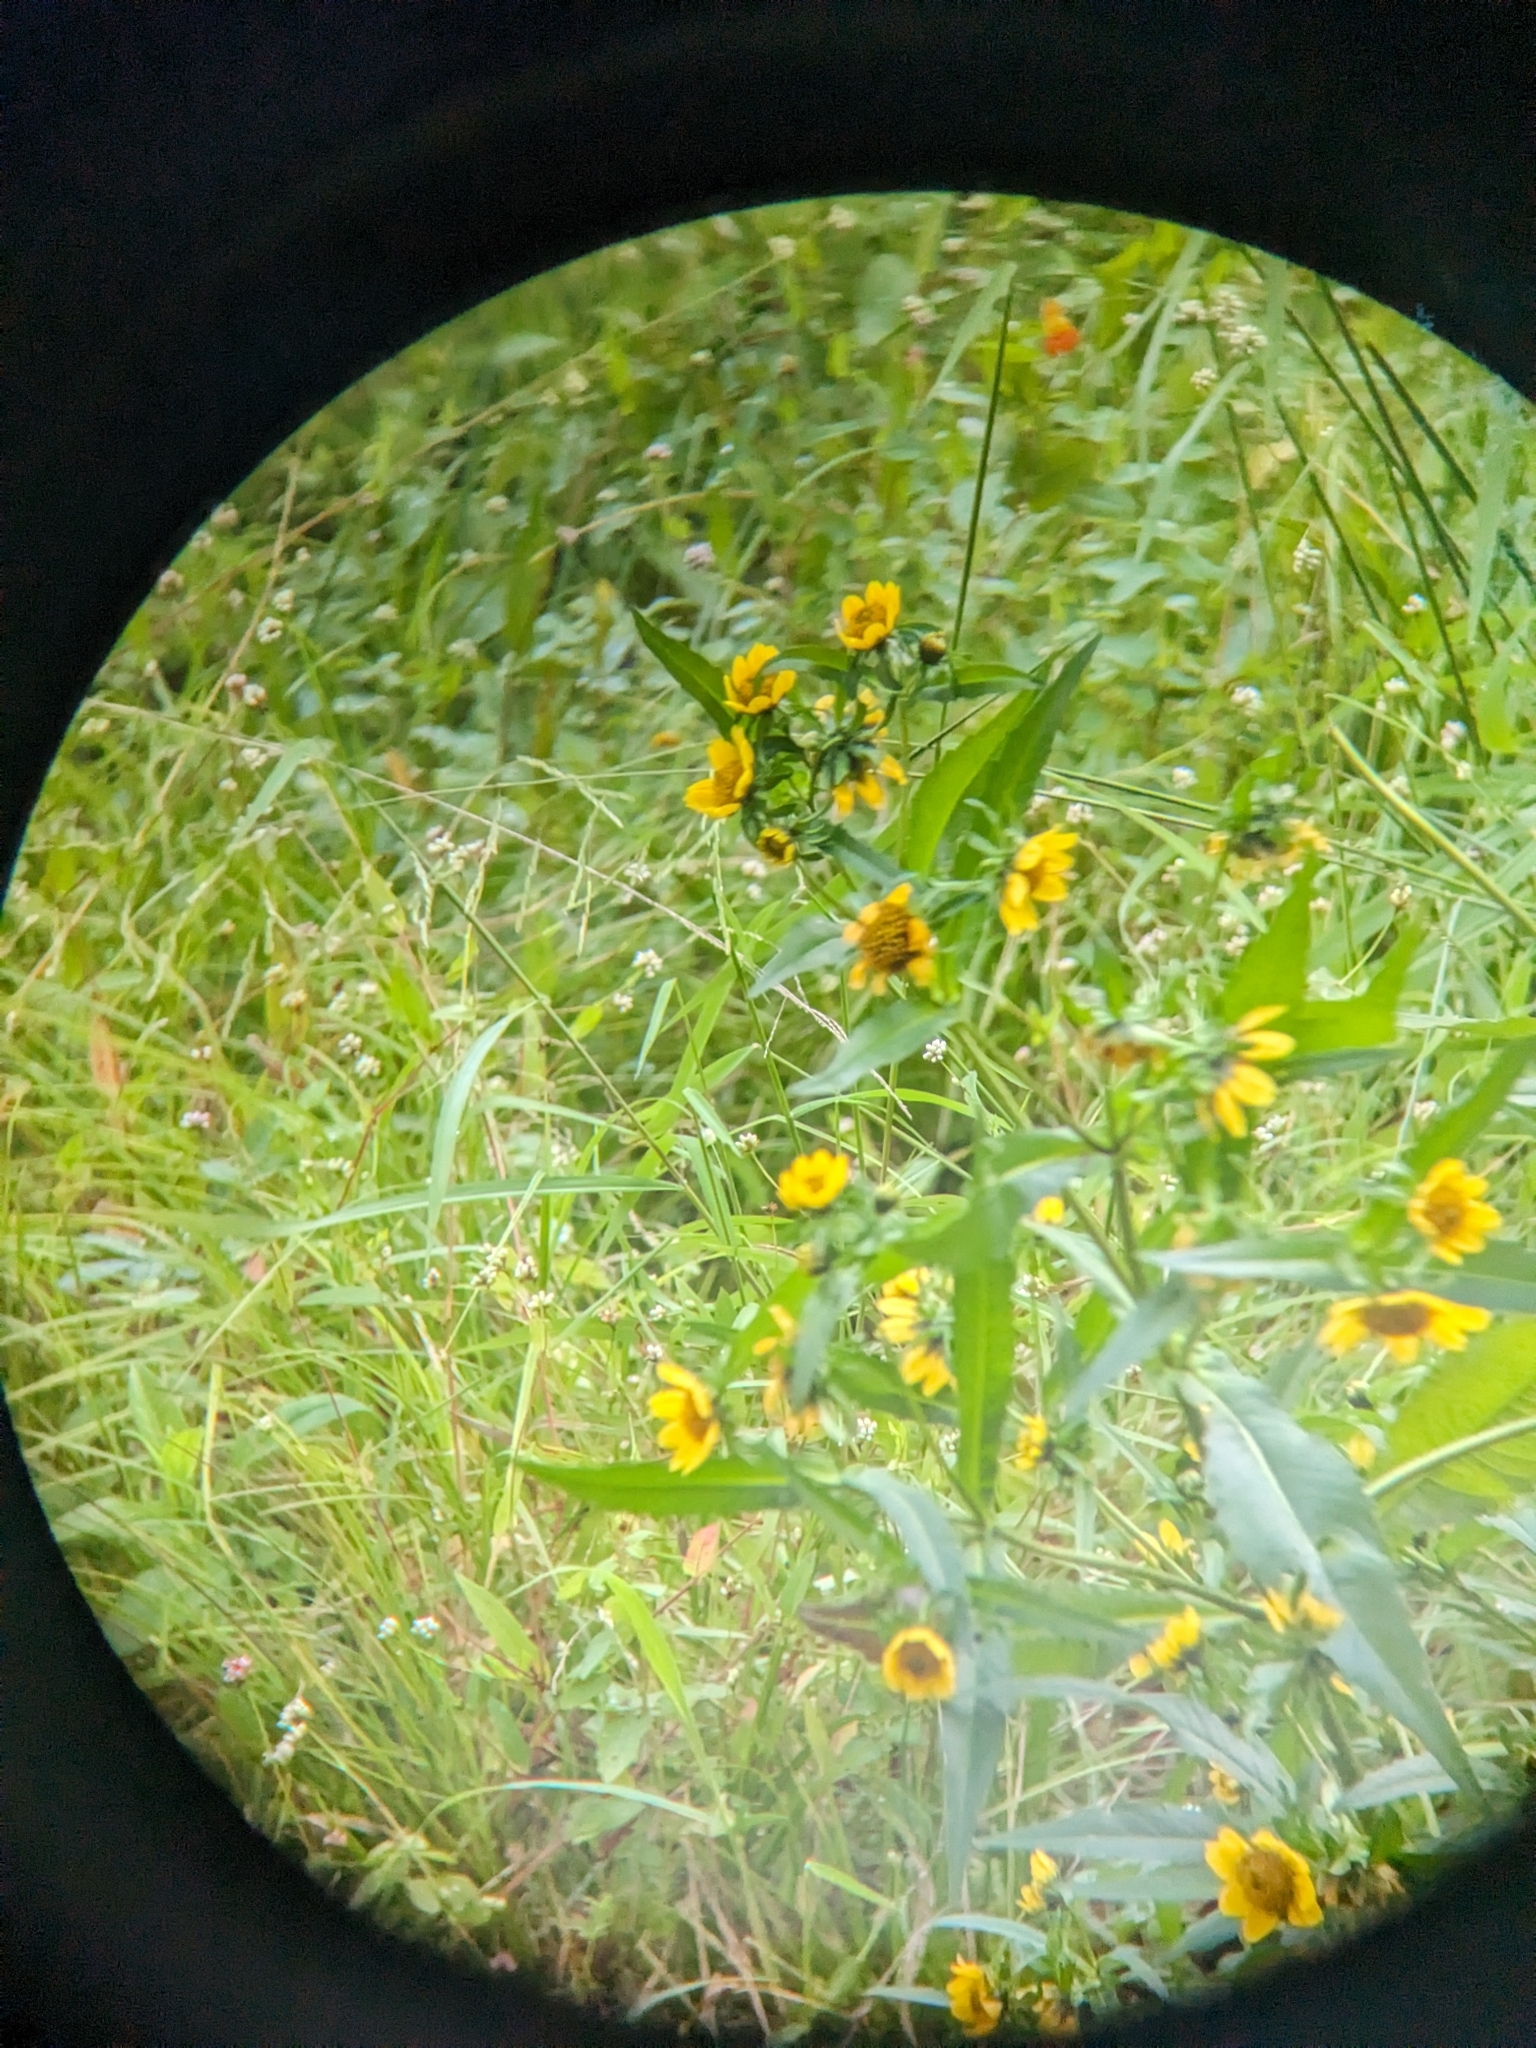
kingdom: Plantae
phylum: Tracheophyta
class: Magnoliopsida
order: Asterales
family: Asteraceae
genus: Bidens
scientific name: Bidens cernua
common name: Nodding bur-marigold
